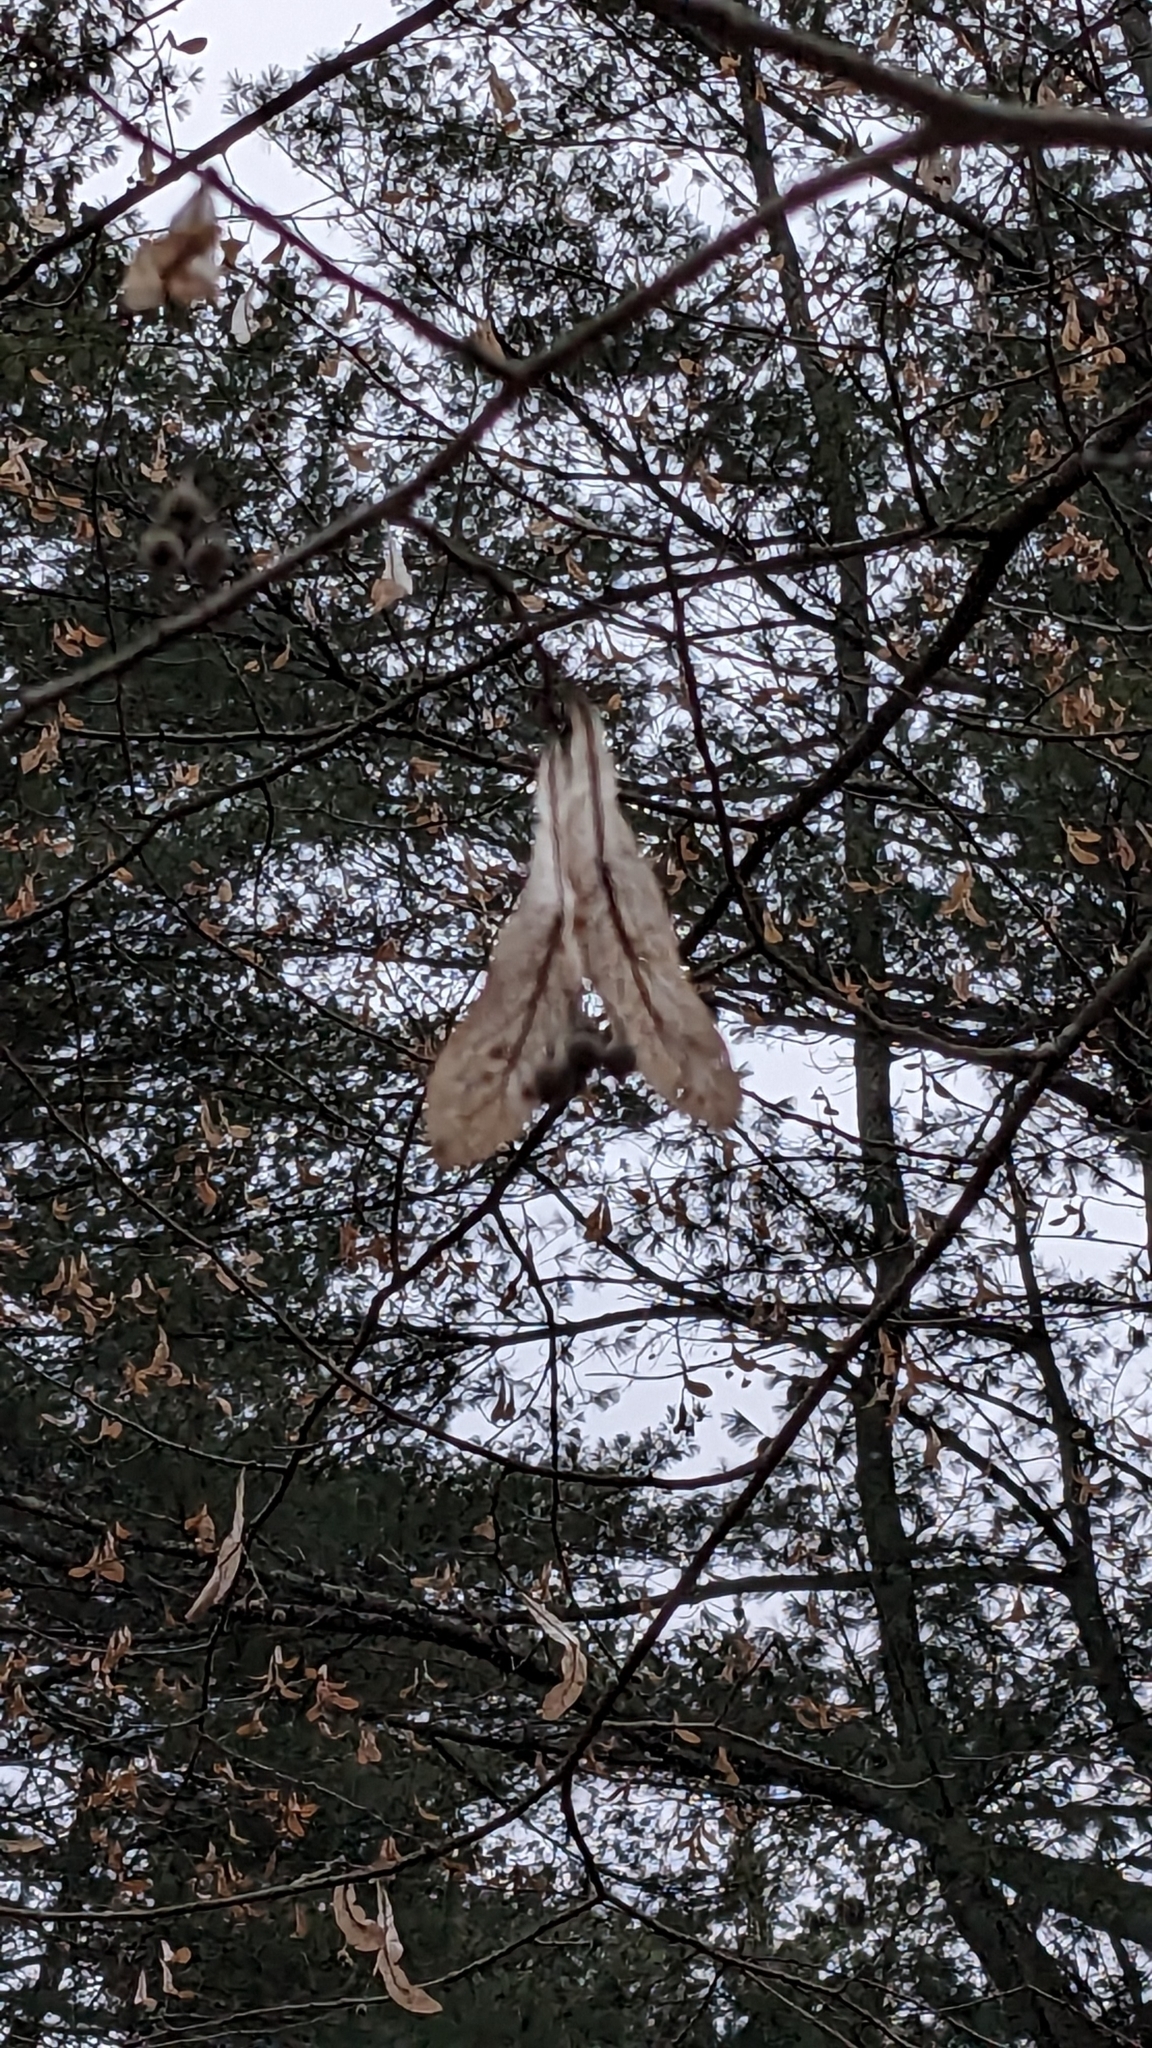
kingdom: Plantae
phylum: Tracheophyta
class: Magnoliopsida
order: Malvales
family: Malvaceae
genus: Tilia
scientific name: Tilia americana
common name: Basswood
